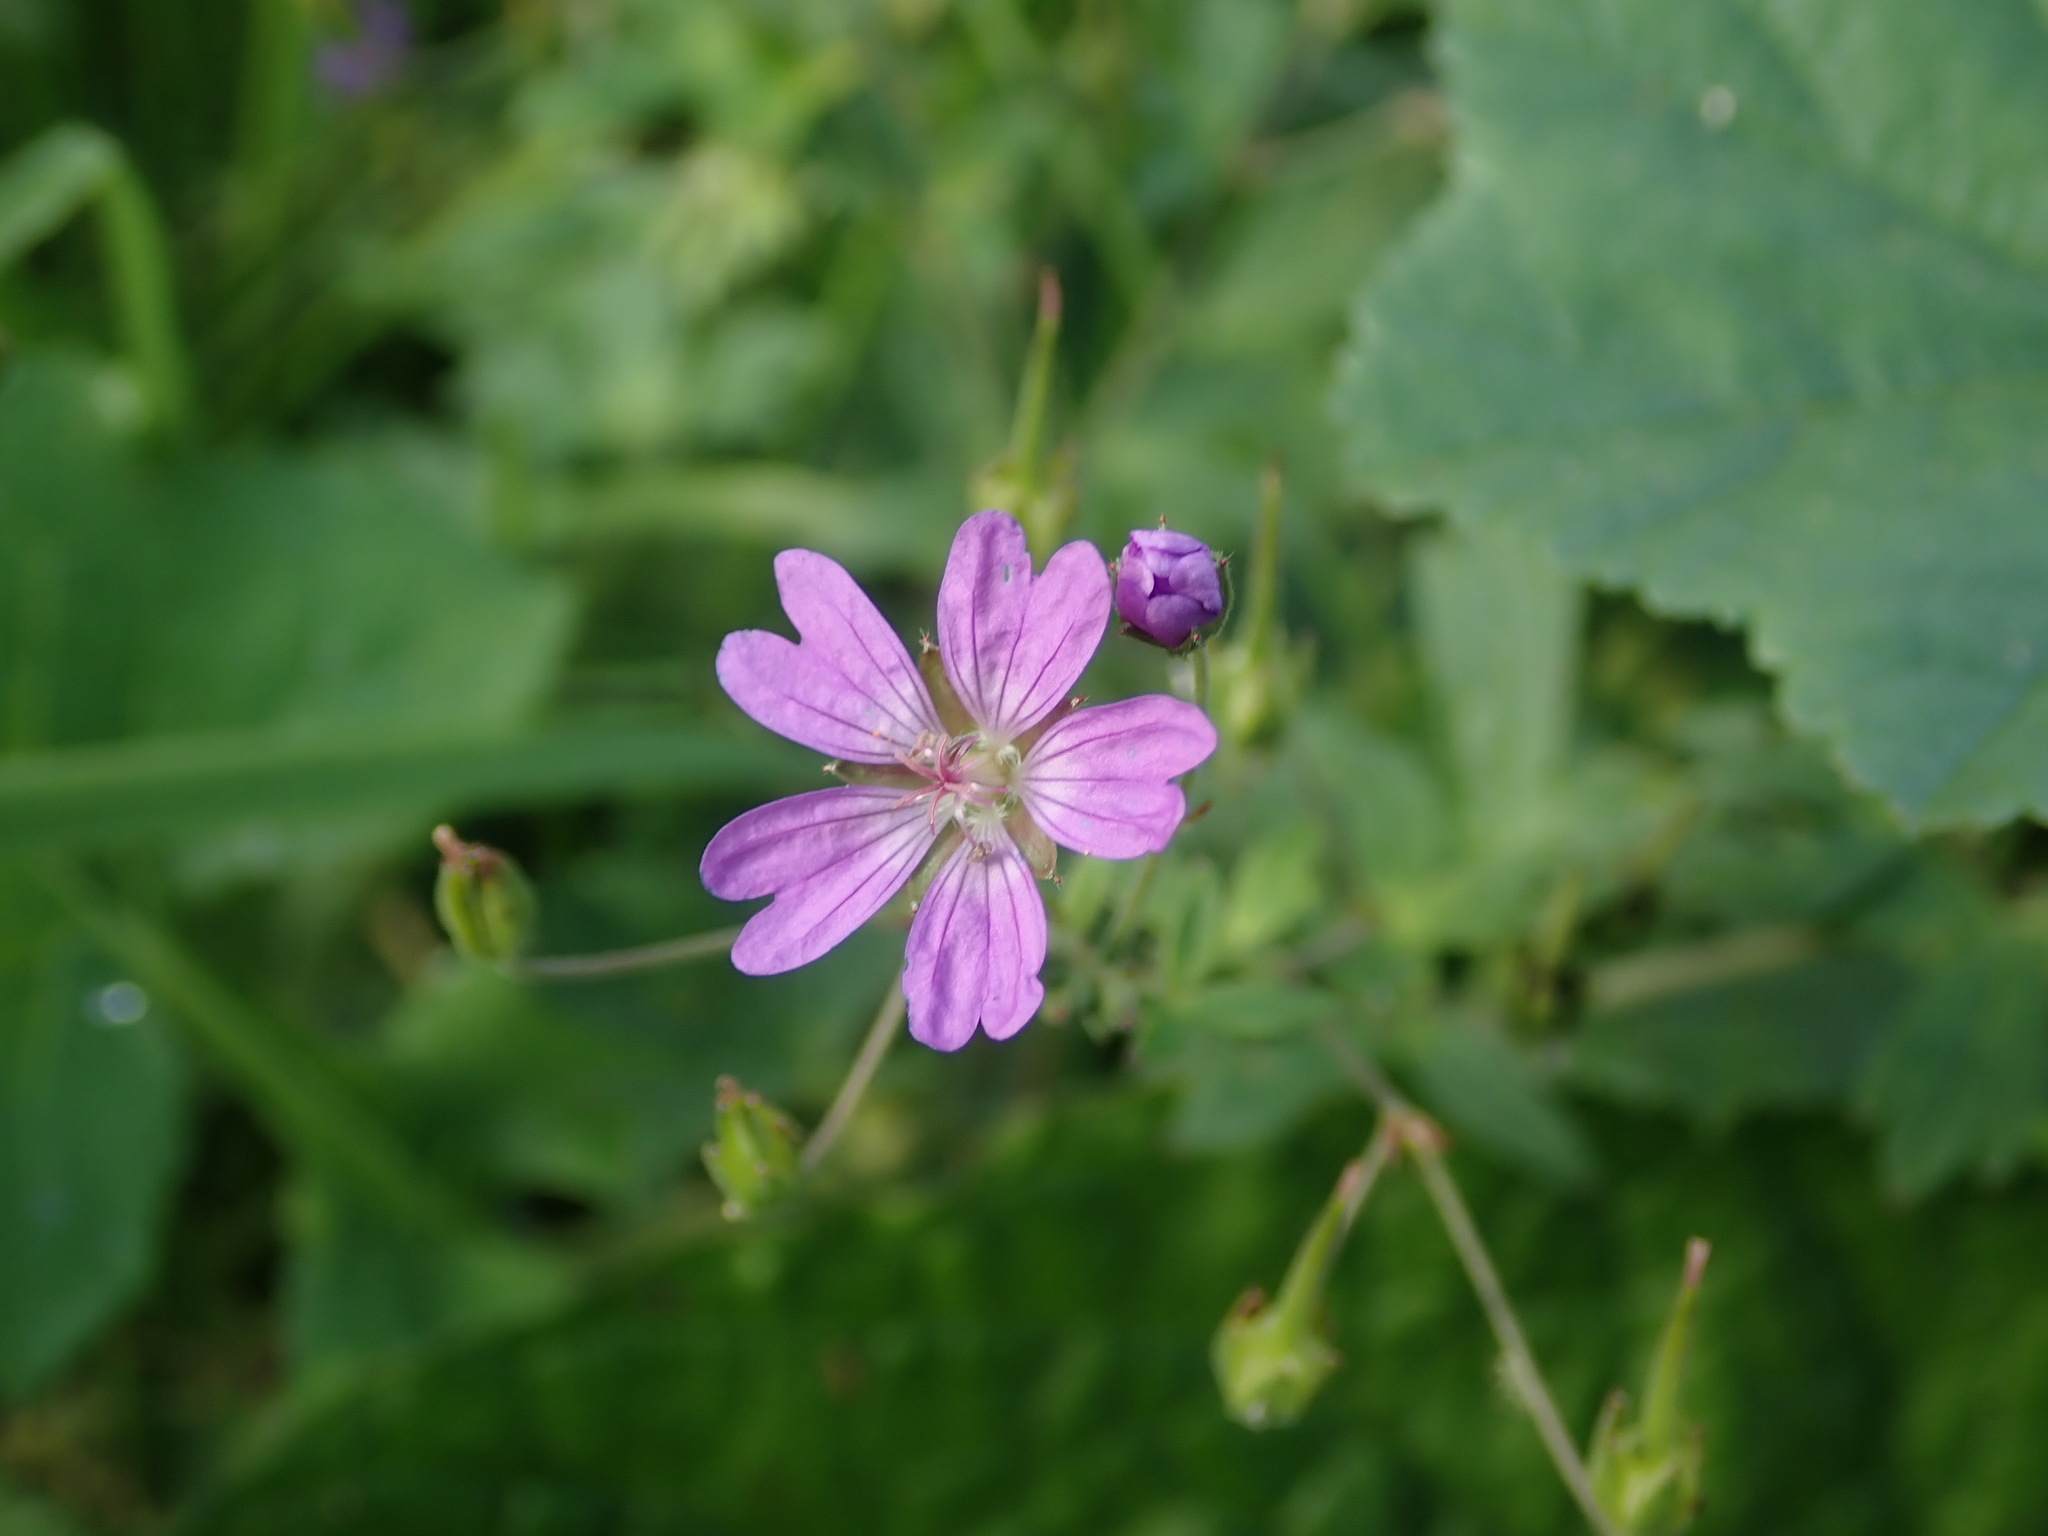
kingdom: Plantae
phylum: Tracheophyta
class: Magnoliopsida
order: Geraniales
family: Geraniaceae
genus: Geranium
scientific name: Geranium pyrenaicum
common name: Hedgerow crane's-bill
